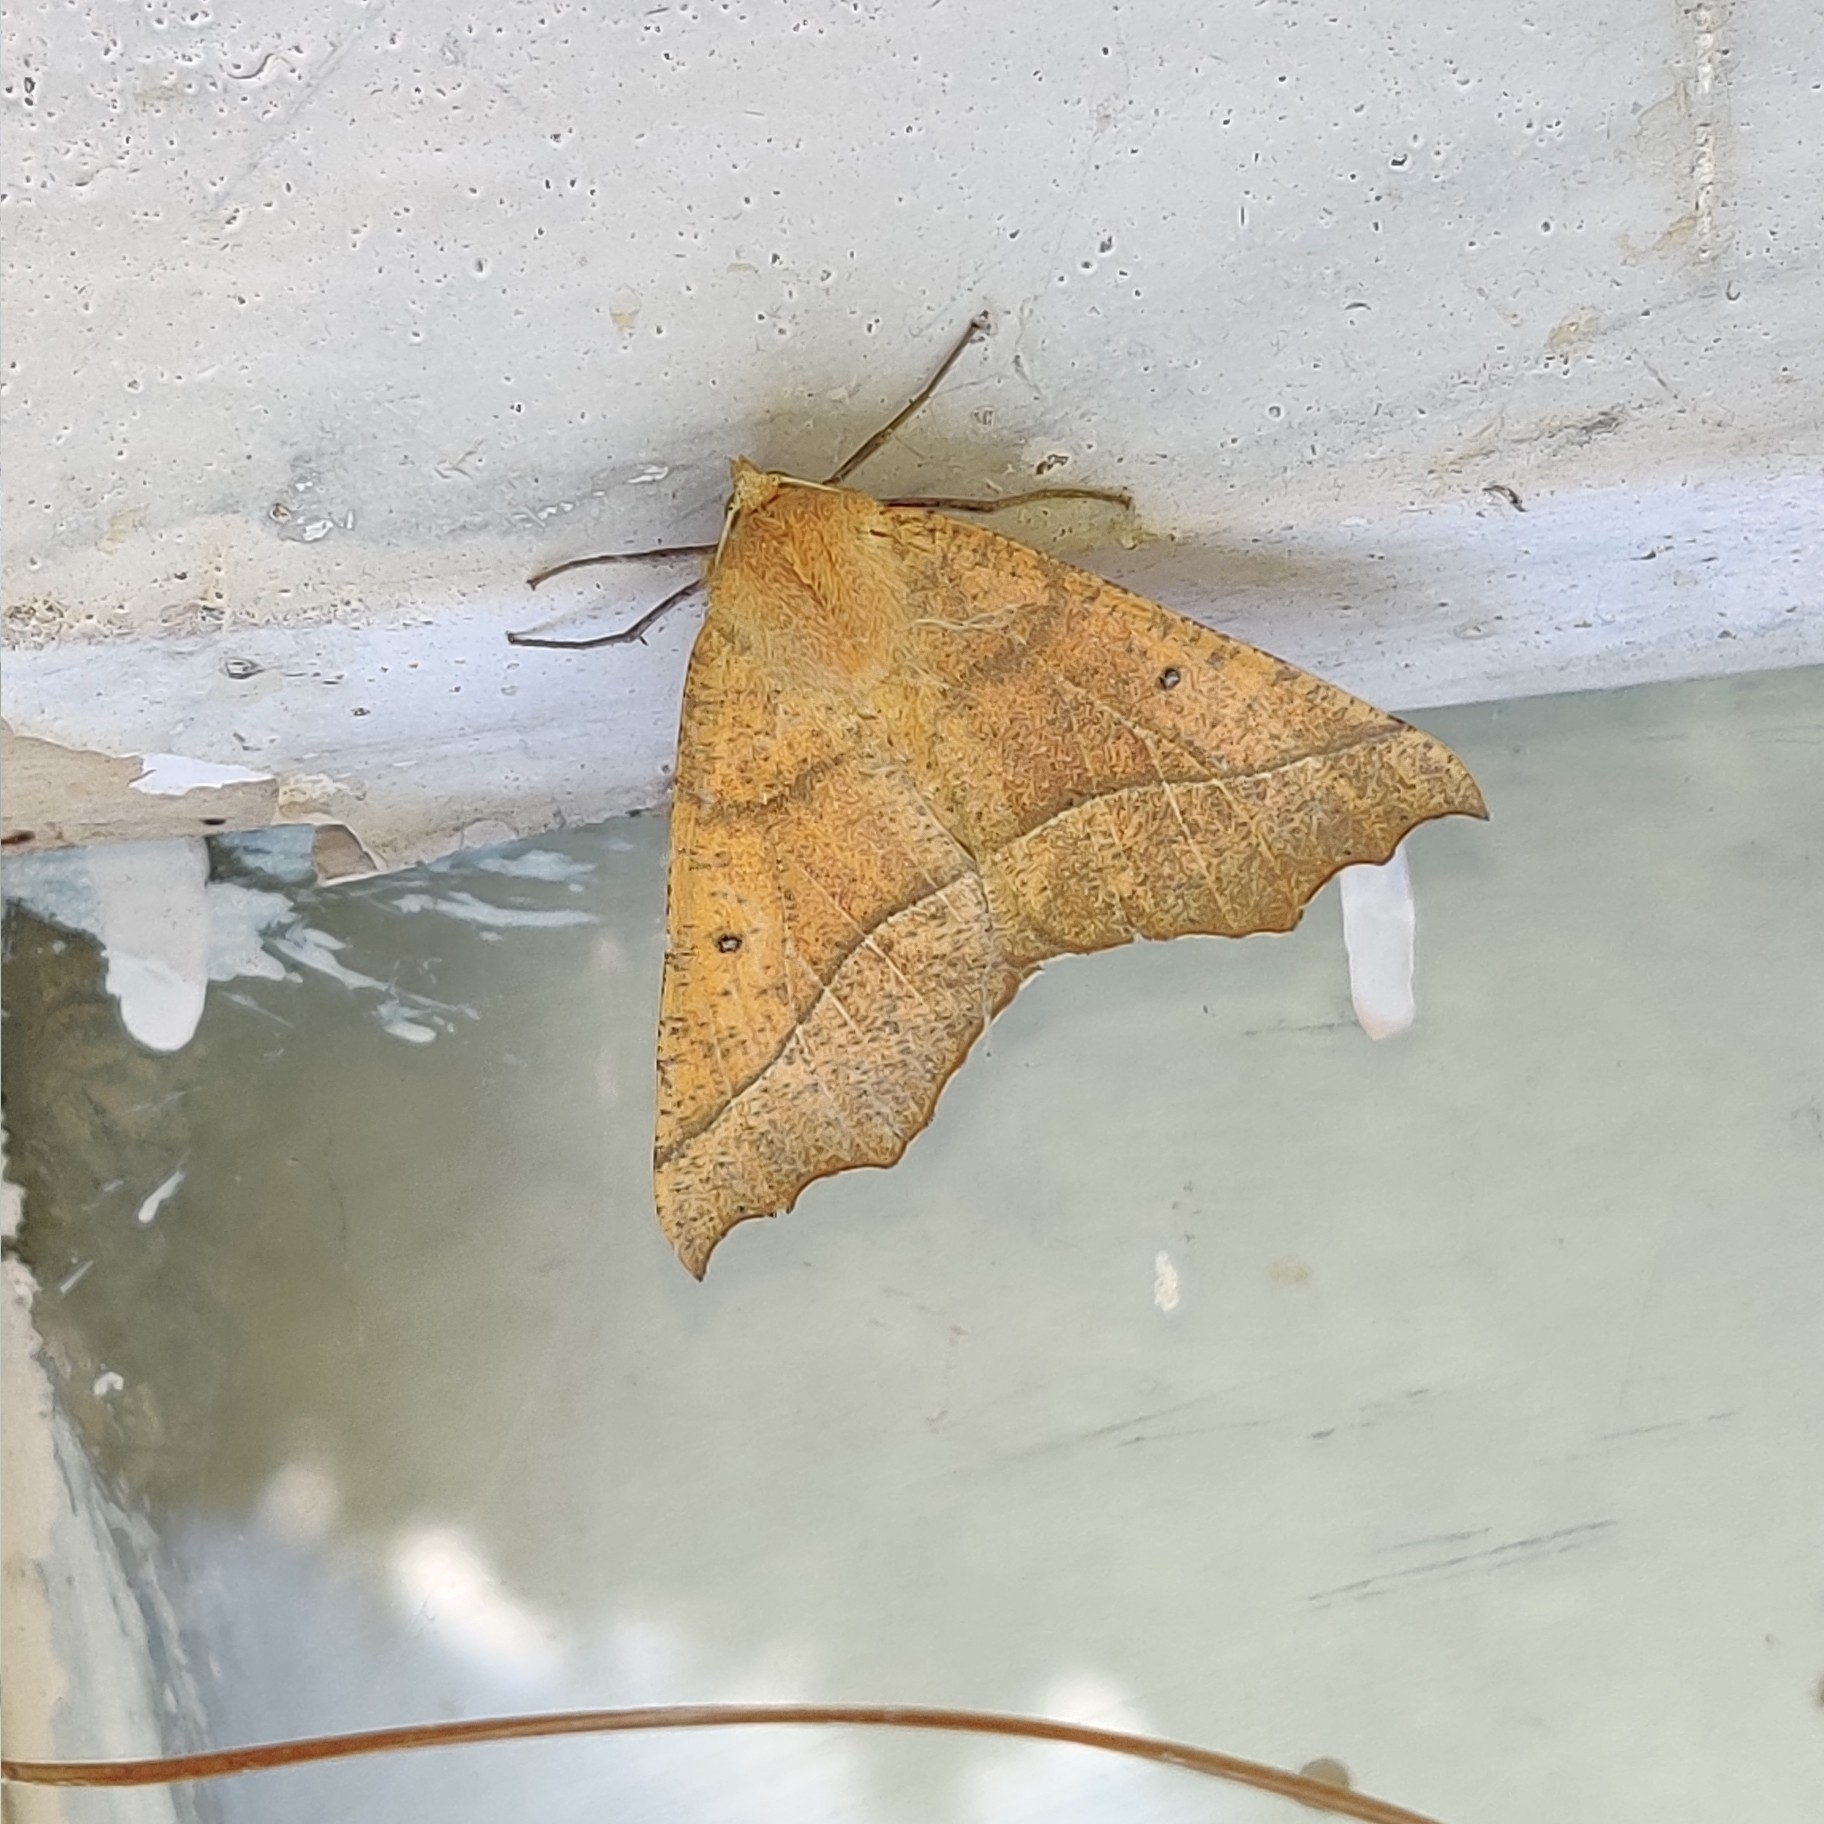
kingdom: Animalia
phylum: Arthropoda
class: Insecta
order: Lepidoptera
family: Geometridae
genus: Odontopera
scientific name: Odontopera bilinearia
